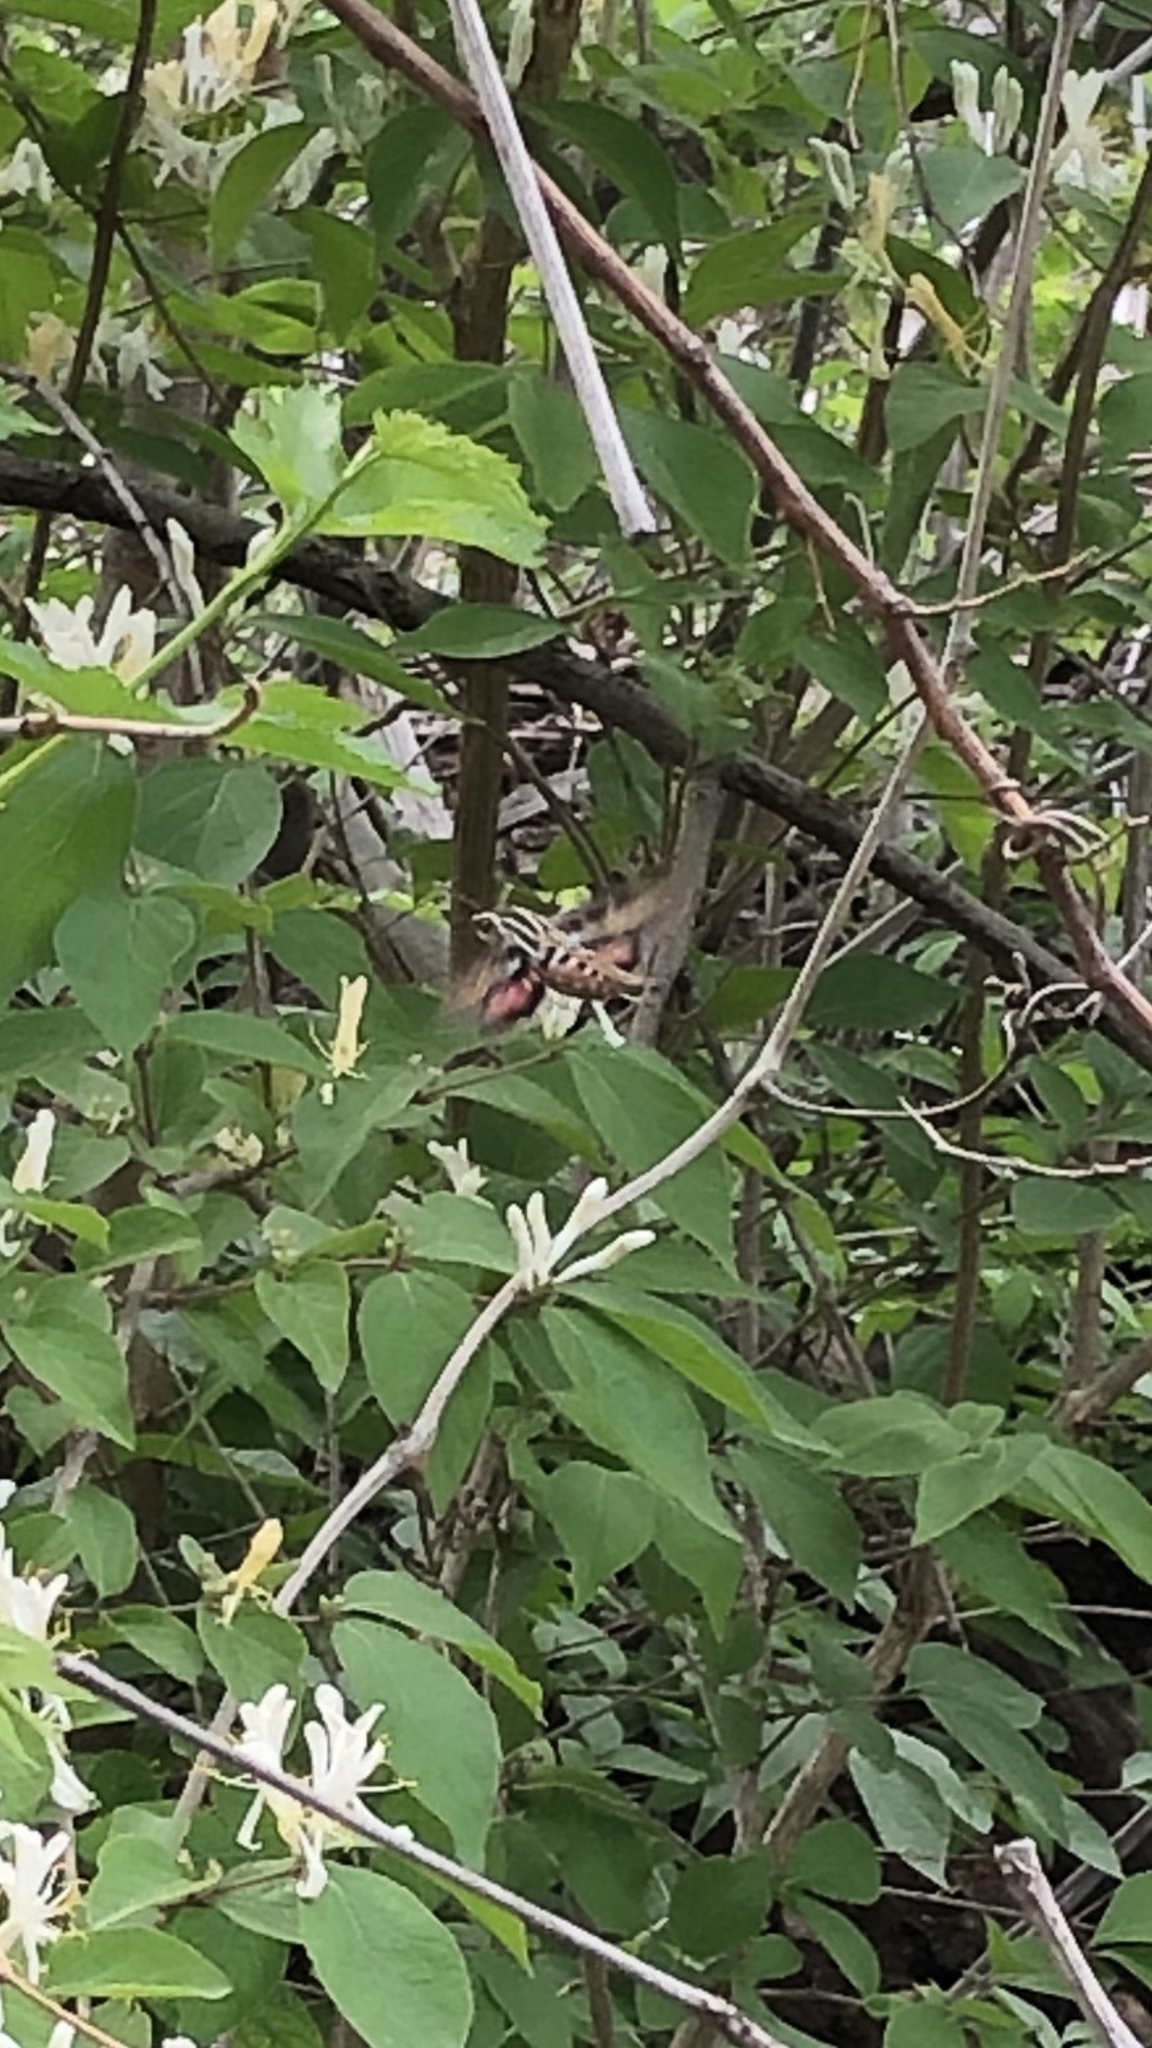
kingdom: Animalia
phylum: Arthropoda
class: Insecta
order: Lepidoptera
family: Sphingidae
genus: Hyles
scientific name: Hyles lineata
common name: White-lined sphinx
